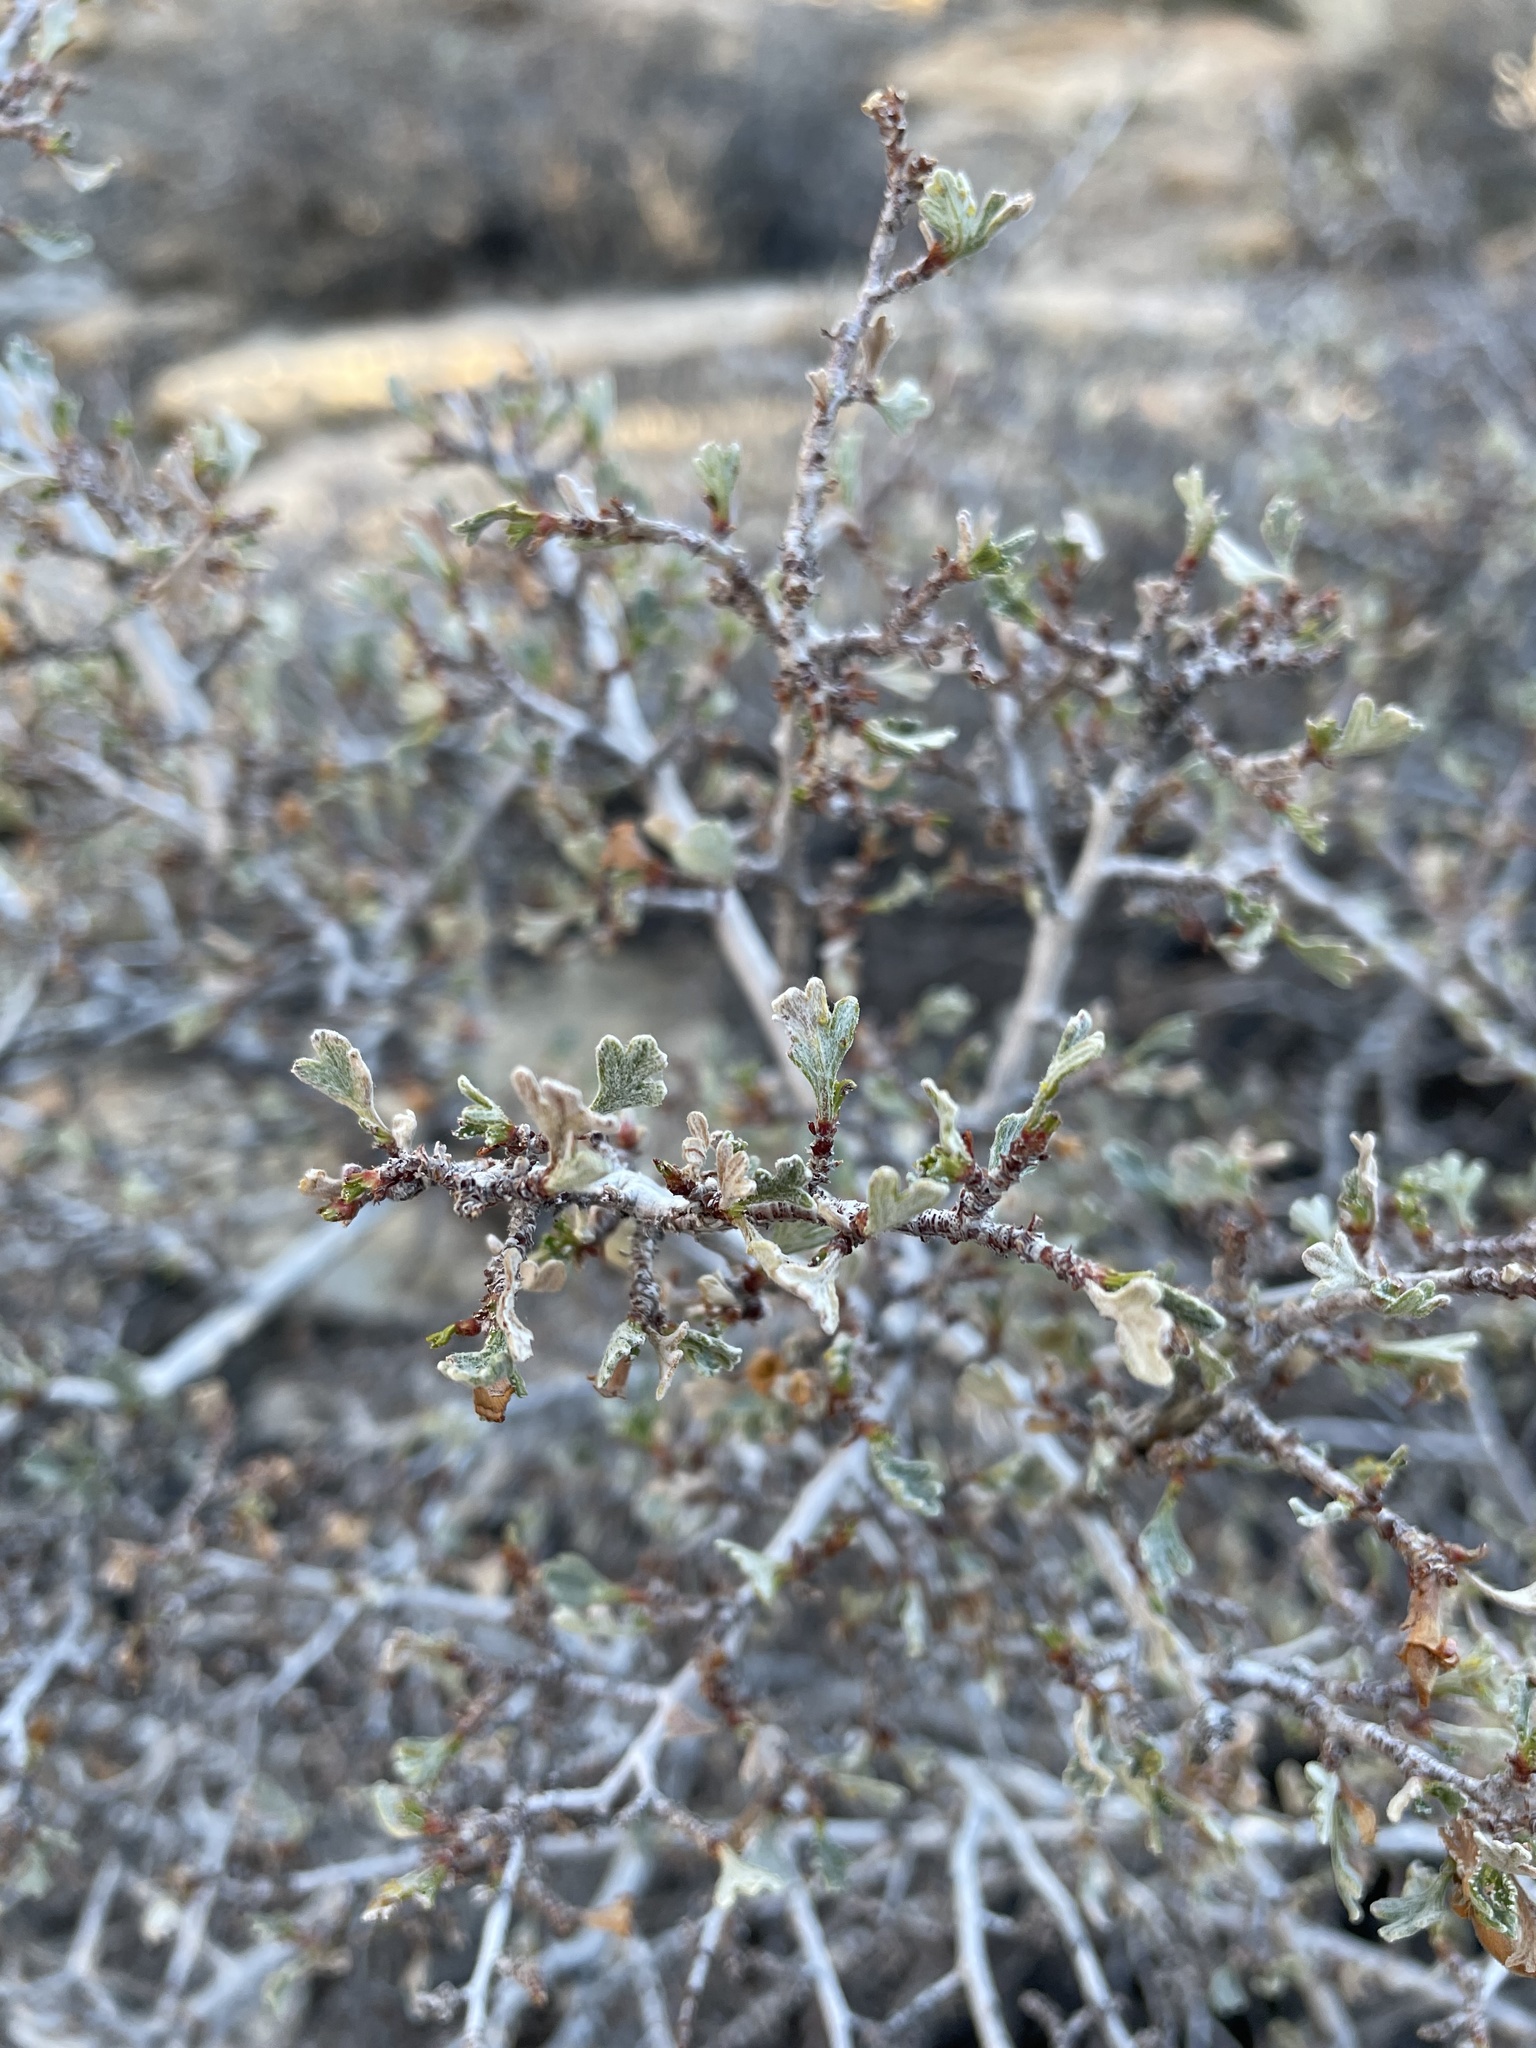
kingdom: Plantae
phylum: Tracheophyta
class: Magnoliopsida
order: Rosales
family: Rosaceae
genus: Purshia
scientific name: Purshia tridentata
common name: Antelope bitterbrush
